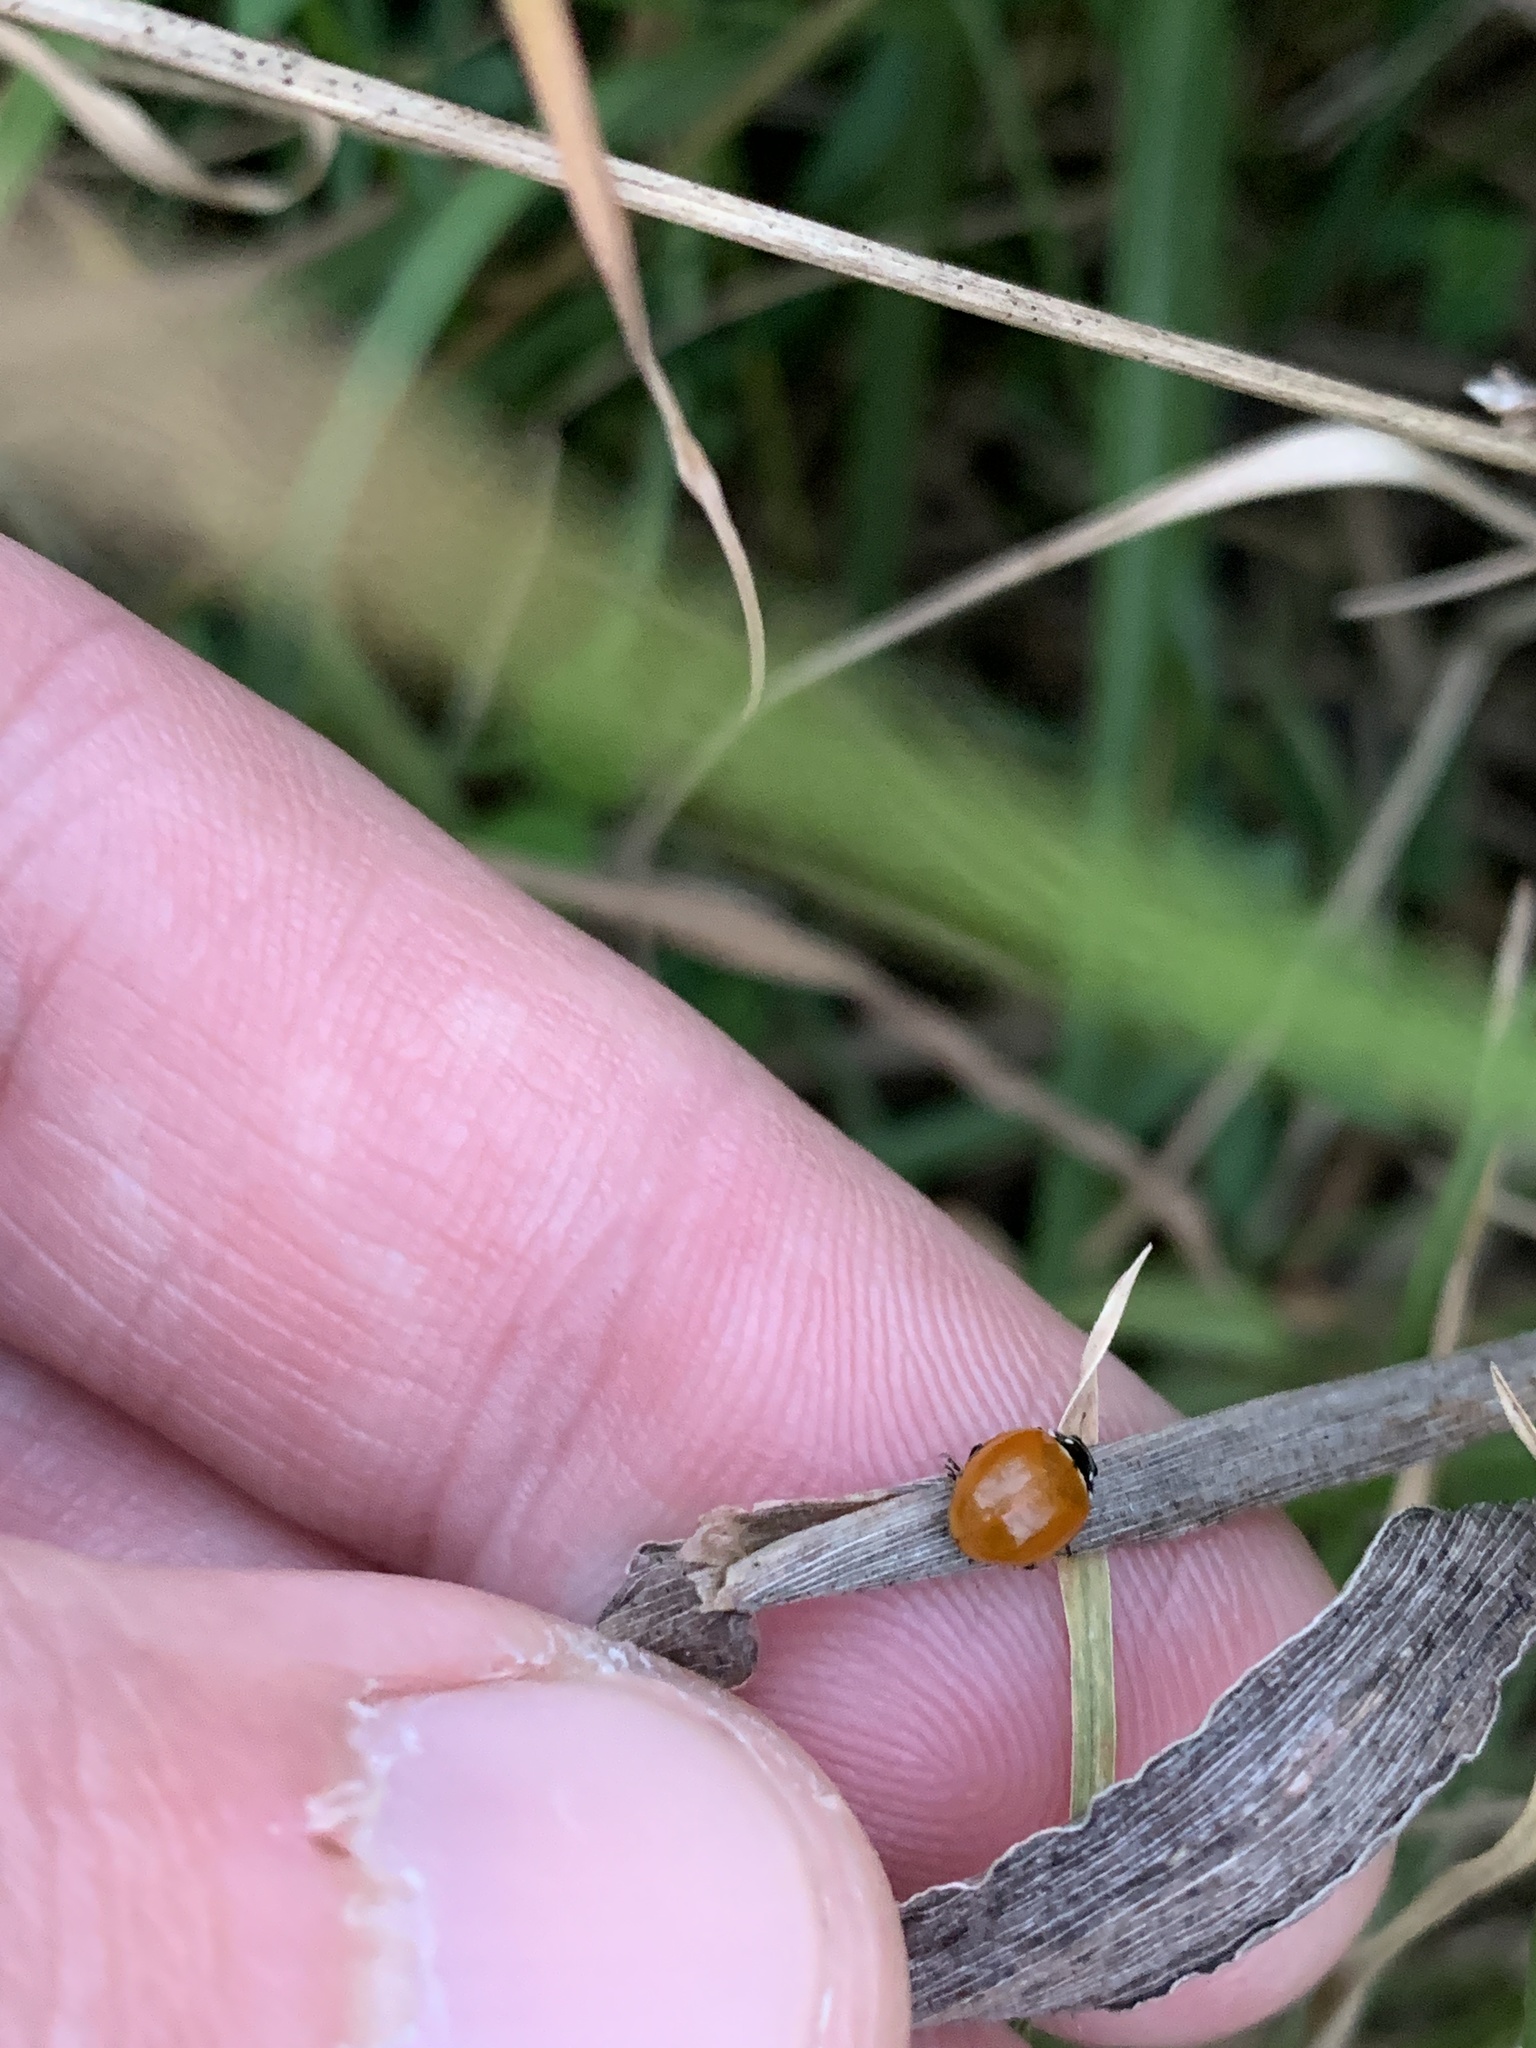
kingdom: Animalia
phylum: Arthropoda
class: Insecta
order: Coleoptera
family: Coccinellidae
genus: Cycloneda
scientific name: Cycloneda sanguinea
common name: Ladybird beetle
